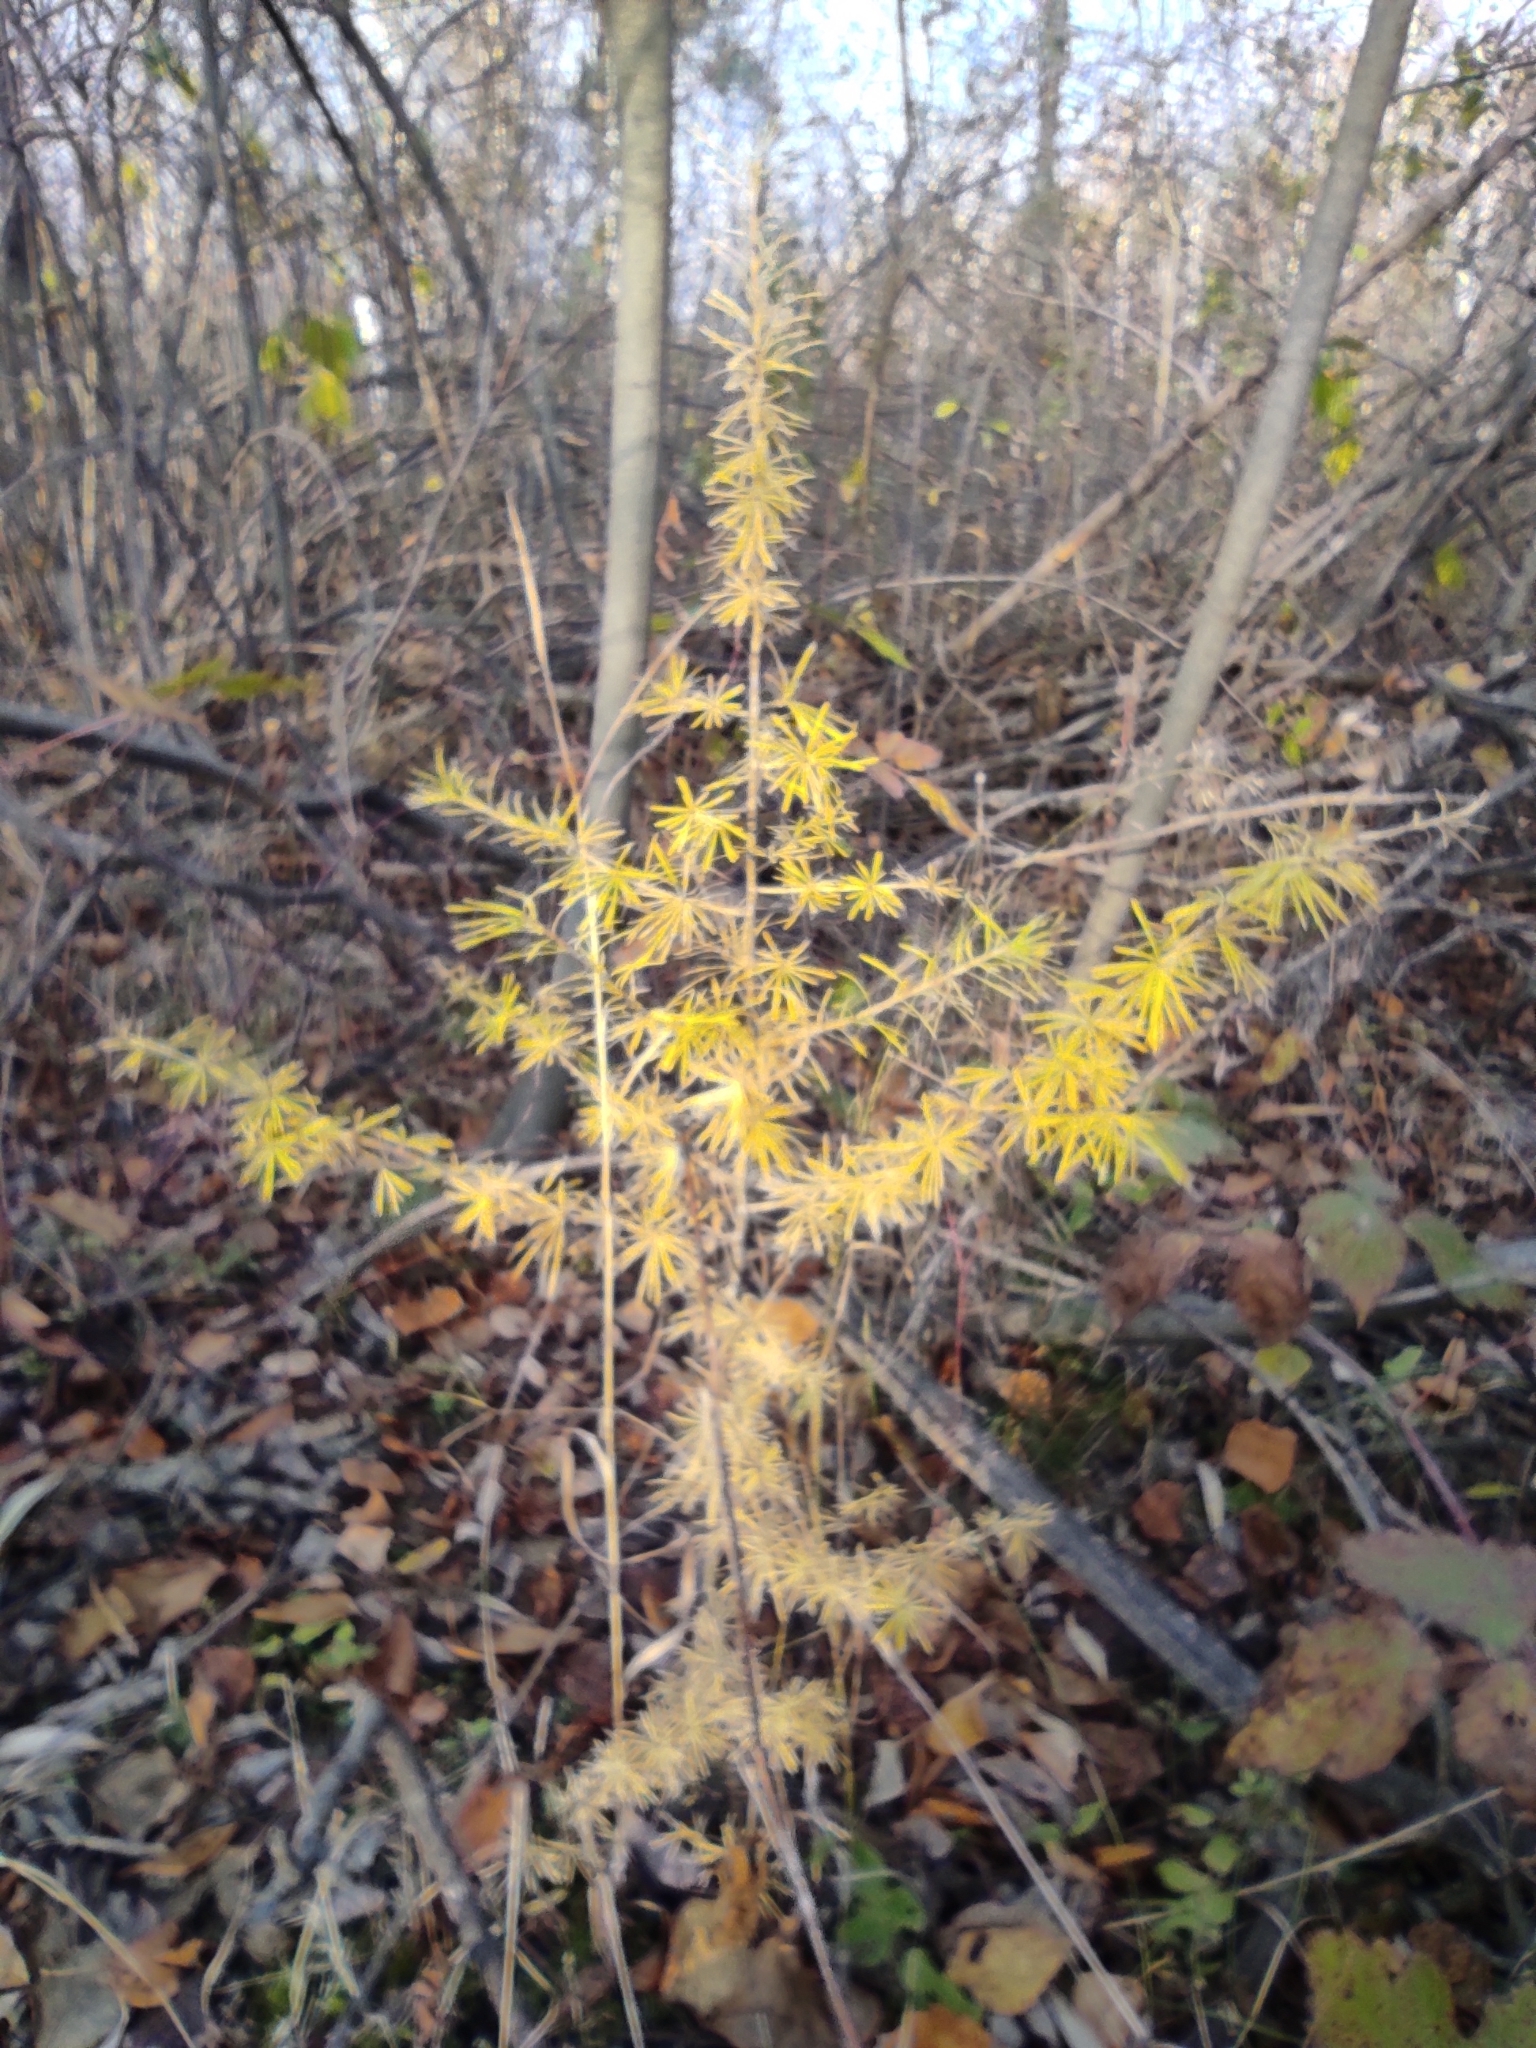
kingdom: Plantae
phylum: Tracheophyta
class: Pinopsida
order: Pinales
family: Pinaceae
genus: Larix
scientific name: Larix sibirica
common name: Siberian larch
